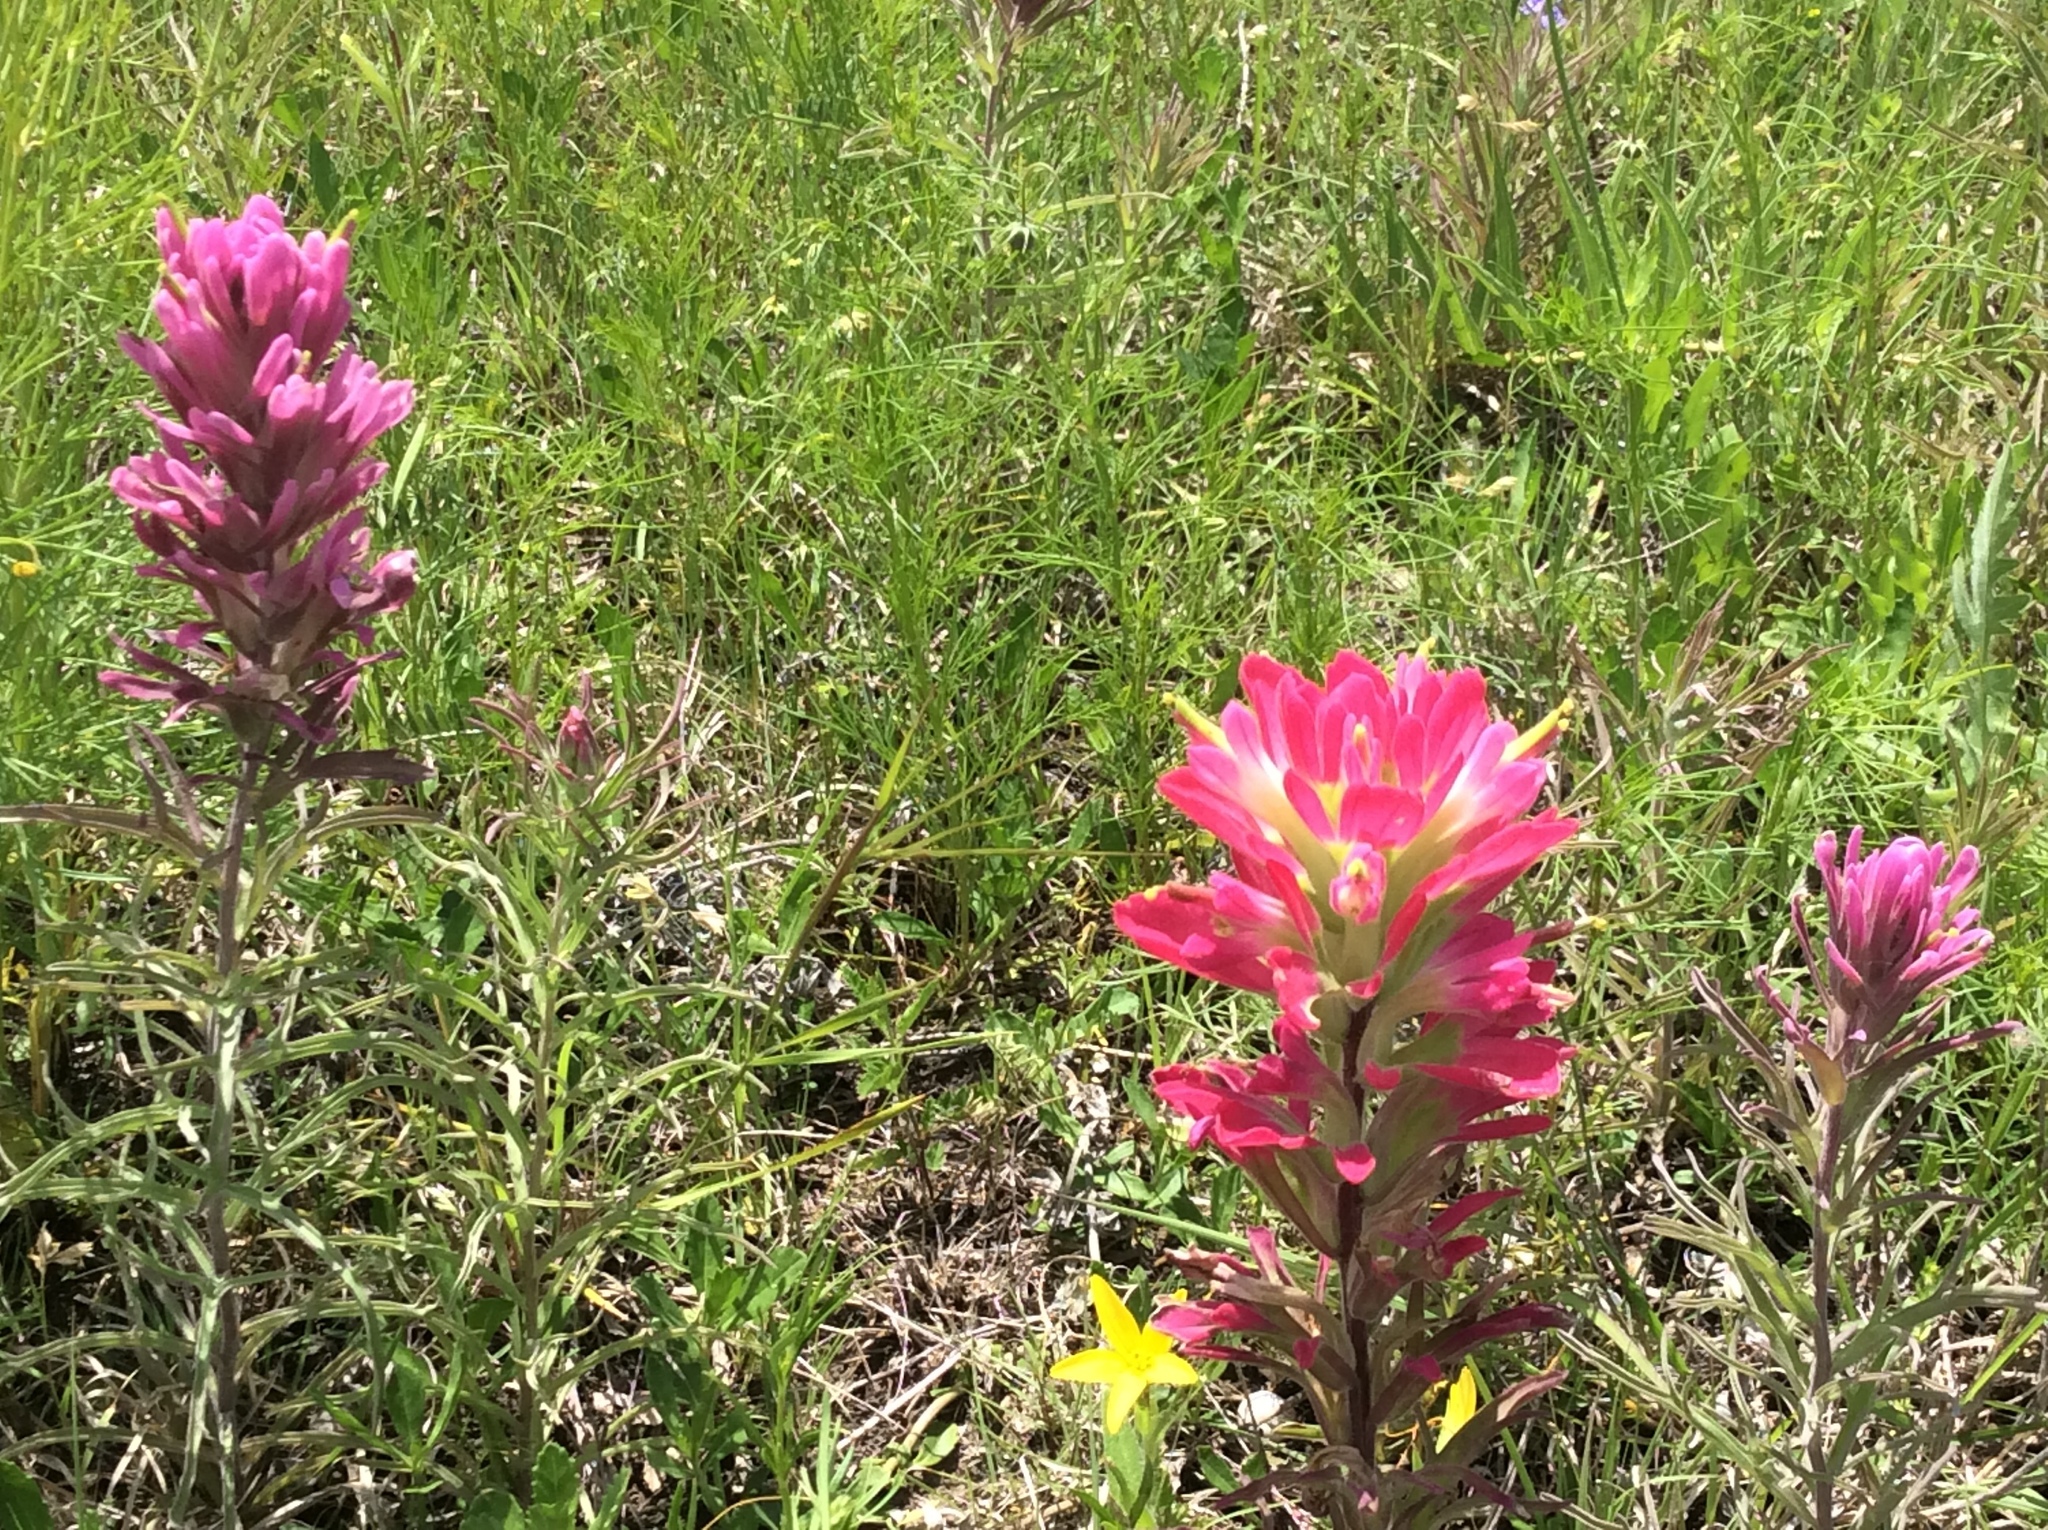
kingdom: Plantae
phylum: Tracheophyta
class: Magnoliopsida
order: Lamiales
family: Orobanchaceae
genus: Castilleja
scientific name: Castilleja purpurea
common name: Plains paintbrush
